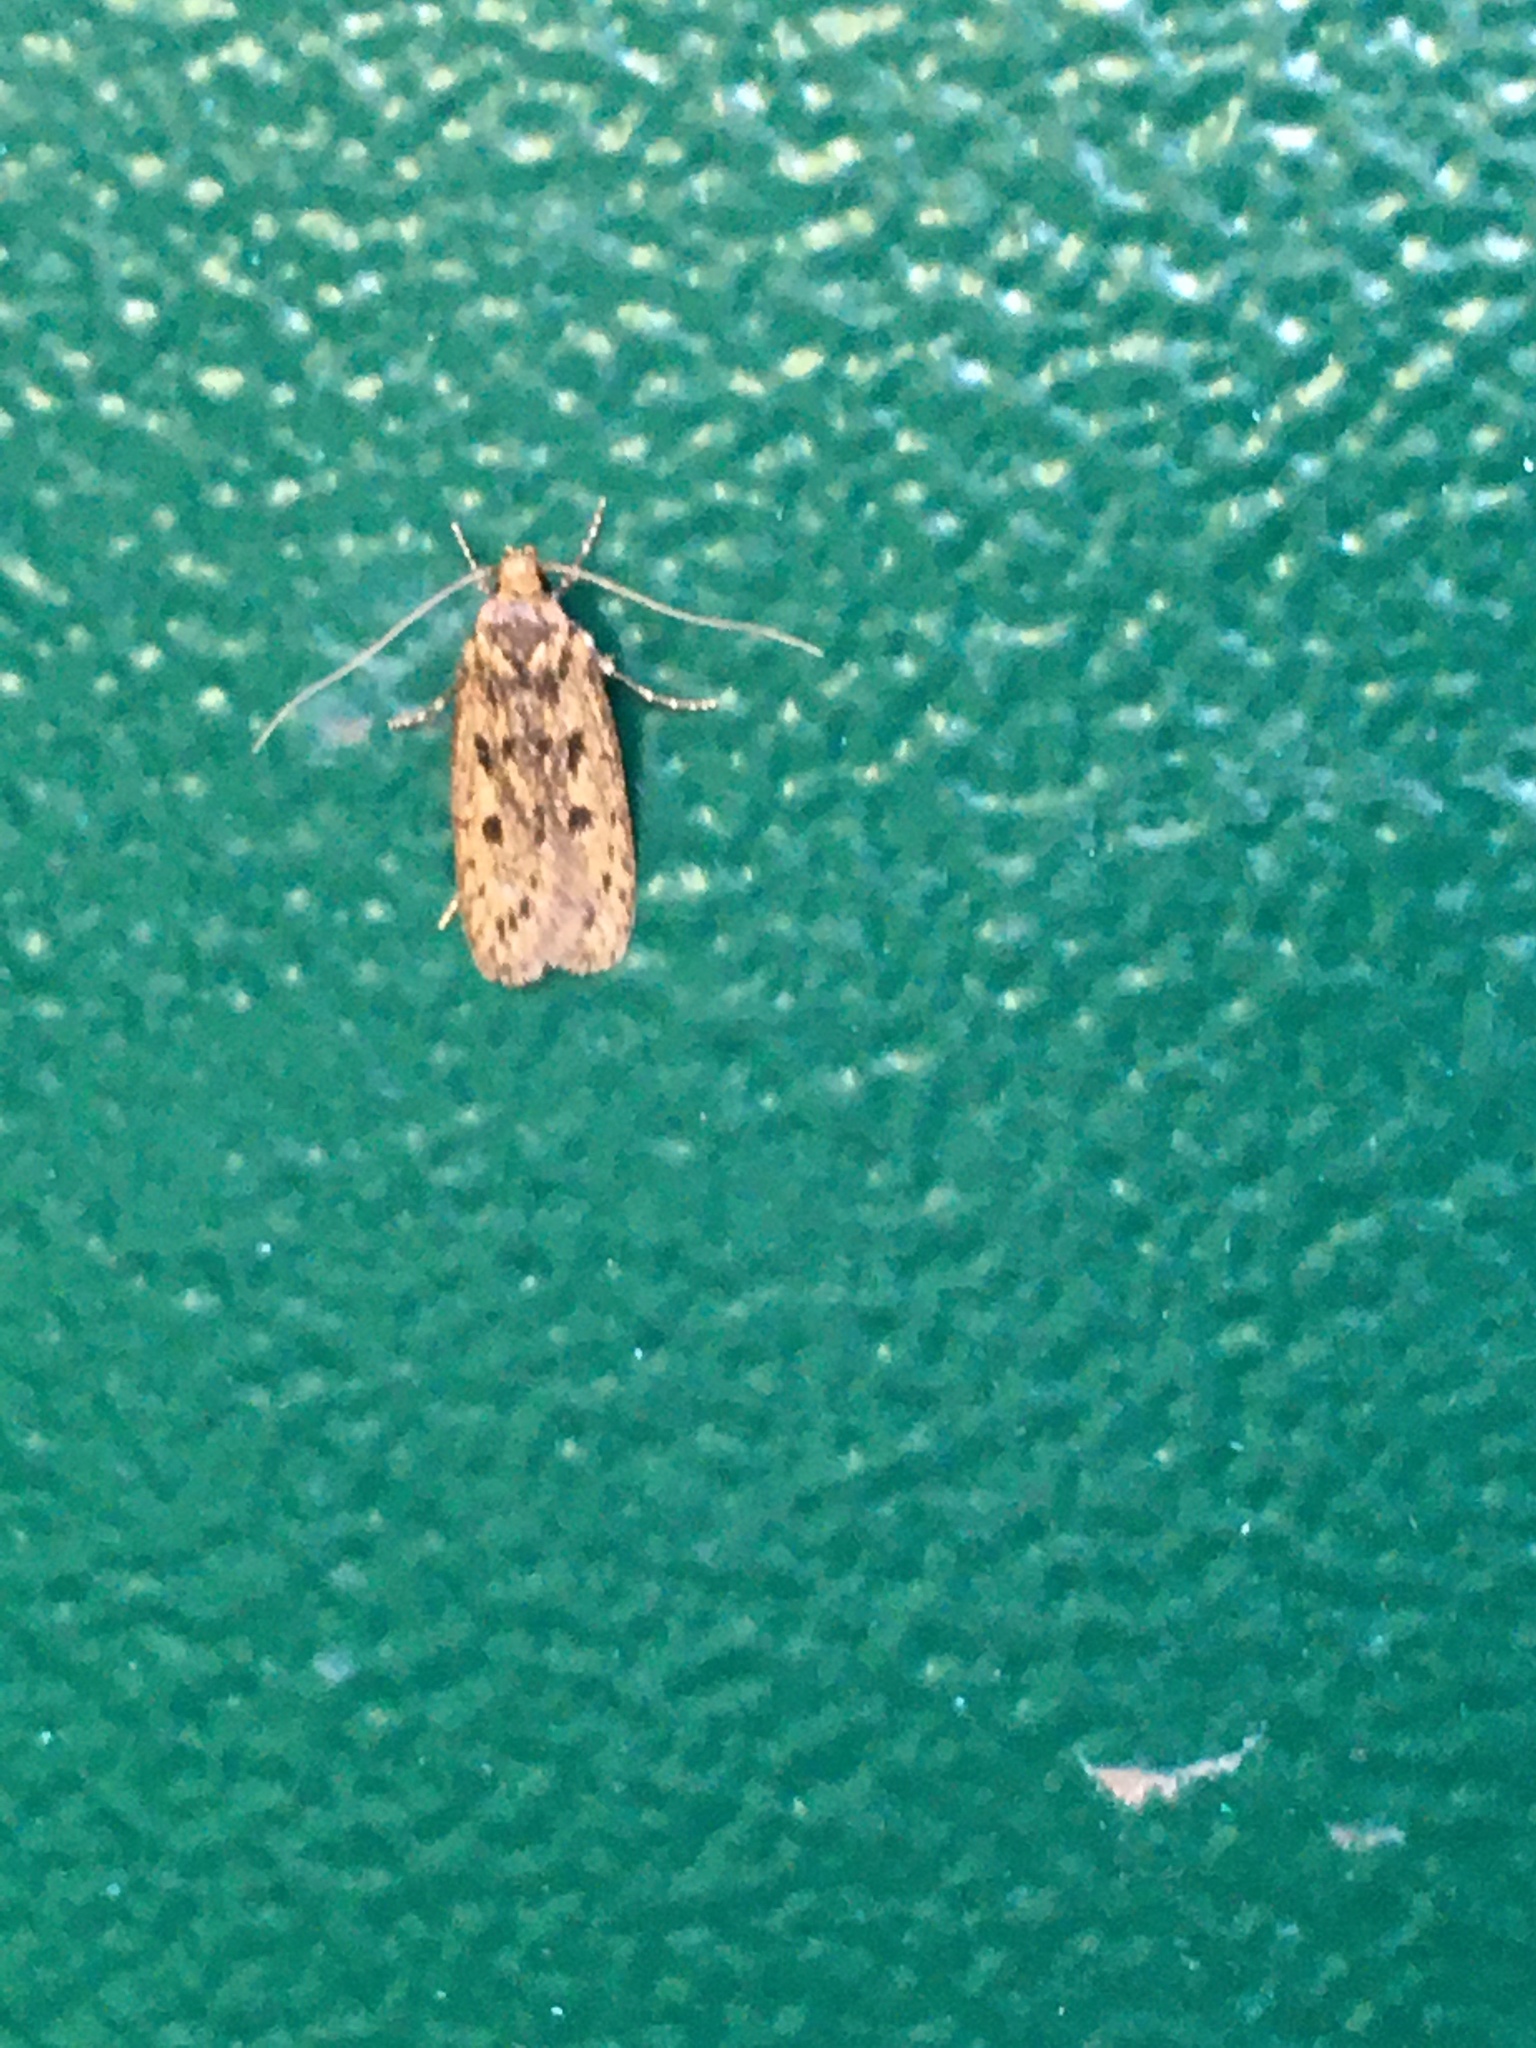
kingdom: Animalia
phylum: Arthropoda
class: Insecta
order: Lepidoptera
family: Oecophoridae
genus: Hofmannophila
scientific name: Hofmannophila pseudospretella
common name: Brown house moth
